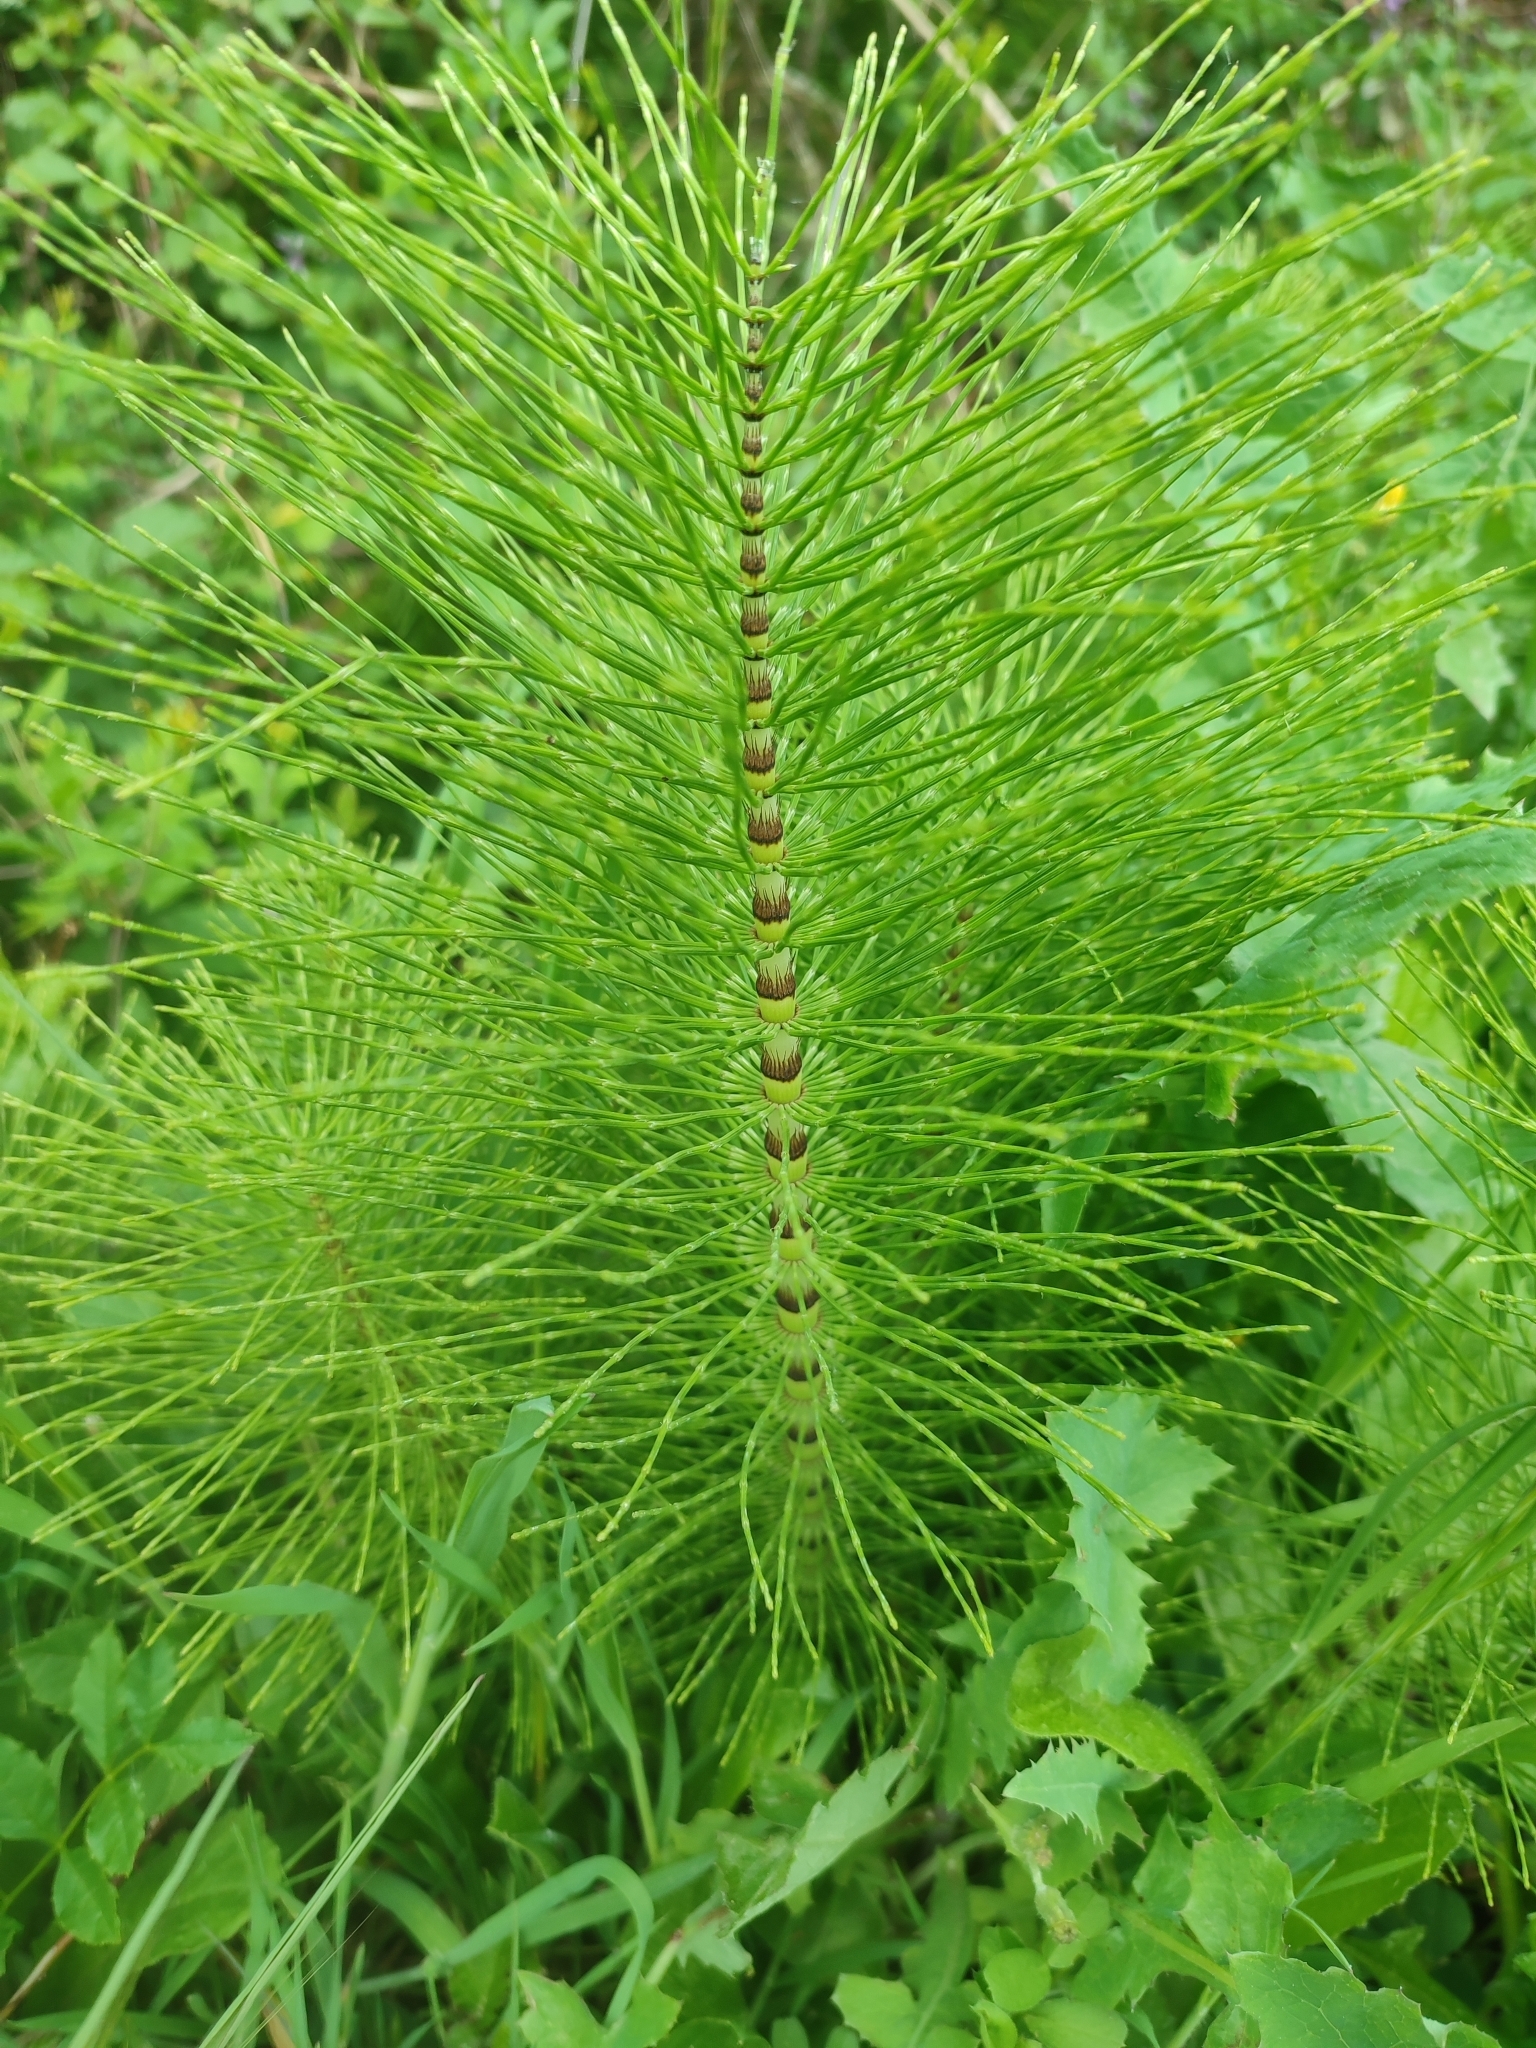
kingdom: Plantae
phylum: Tracheophyta
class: Polypodiopsida
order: Equisetales
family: Equisetaceae
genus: Equisetum
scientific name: Equisetum telmateia
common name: Great horsetail
